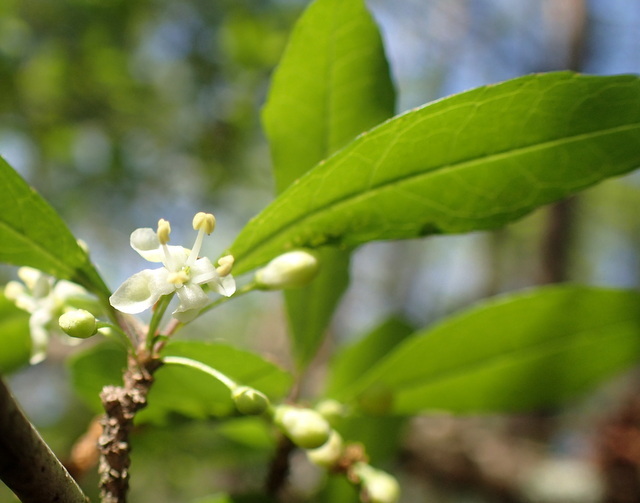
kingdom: Plantae
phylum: Tracheophyta
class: Magnoliopsida
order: Aquifoliales
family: Aquifoliaceae
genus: Ilex
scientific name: Ilex decidua
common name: Possum-haw
